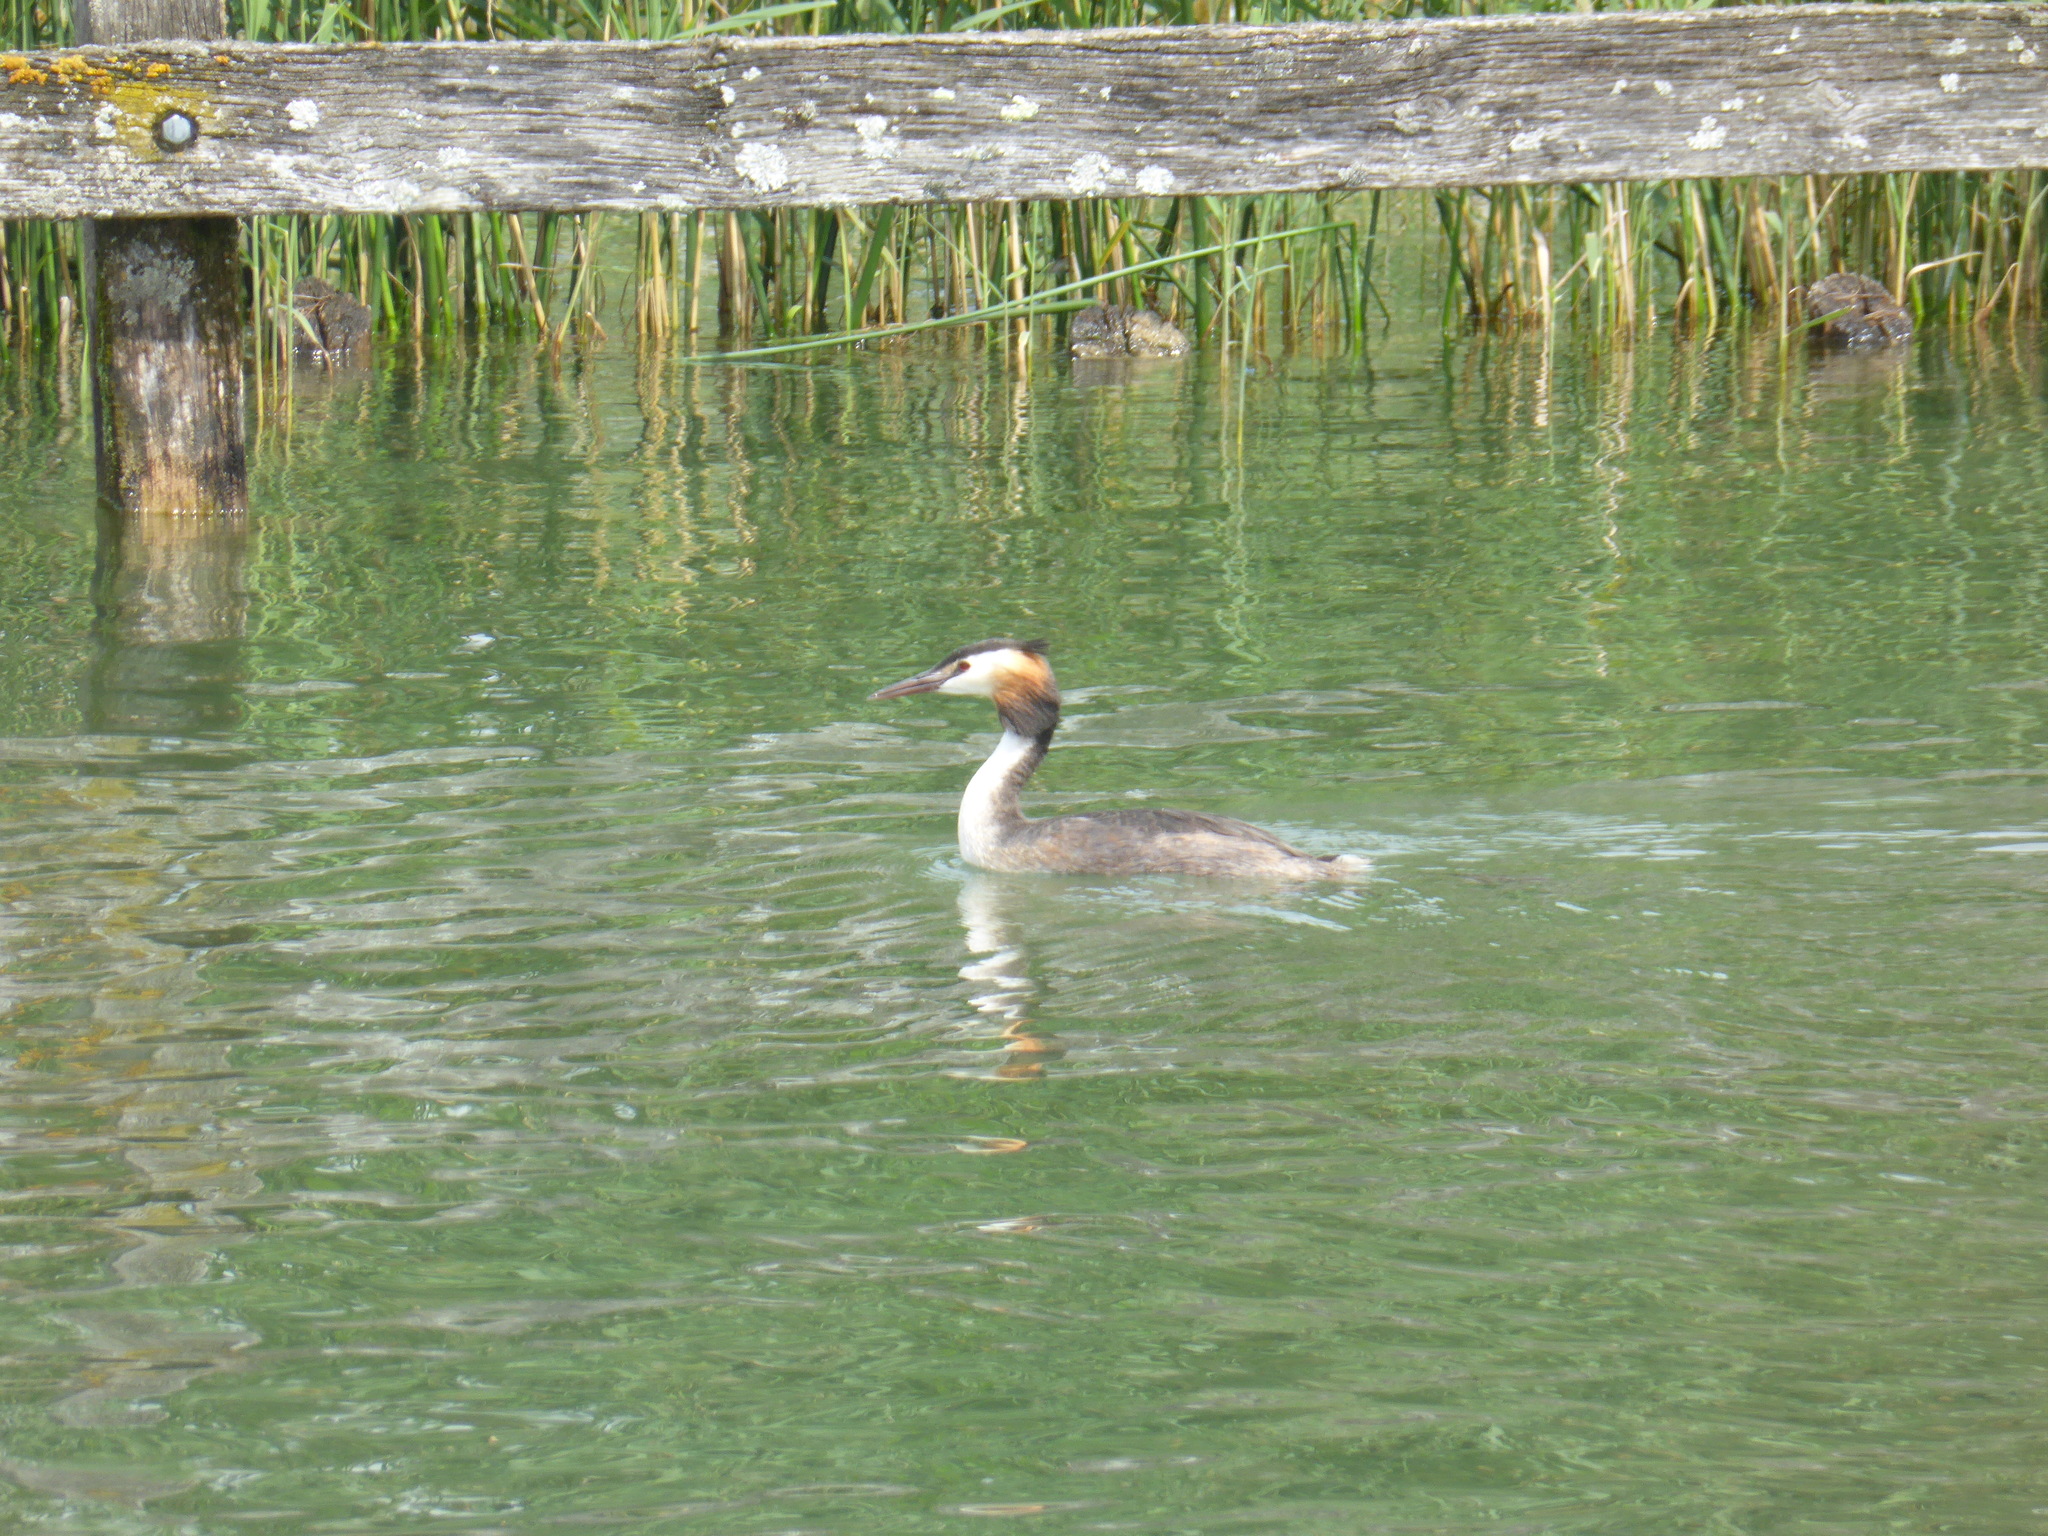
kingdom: Animalia
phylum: Chordata
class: Aves
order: Podicipediformes
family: Podicipedidae
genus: Podiceps
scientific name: Podiceps cristatus
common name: Great crested grebe
